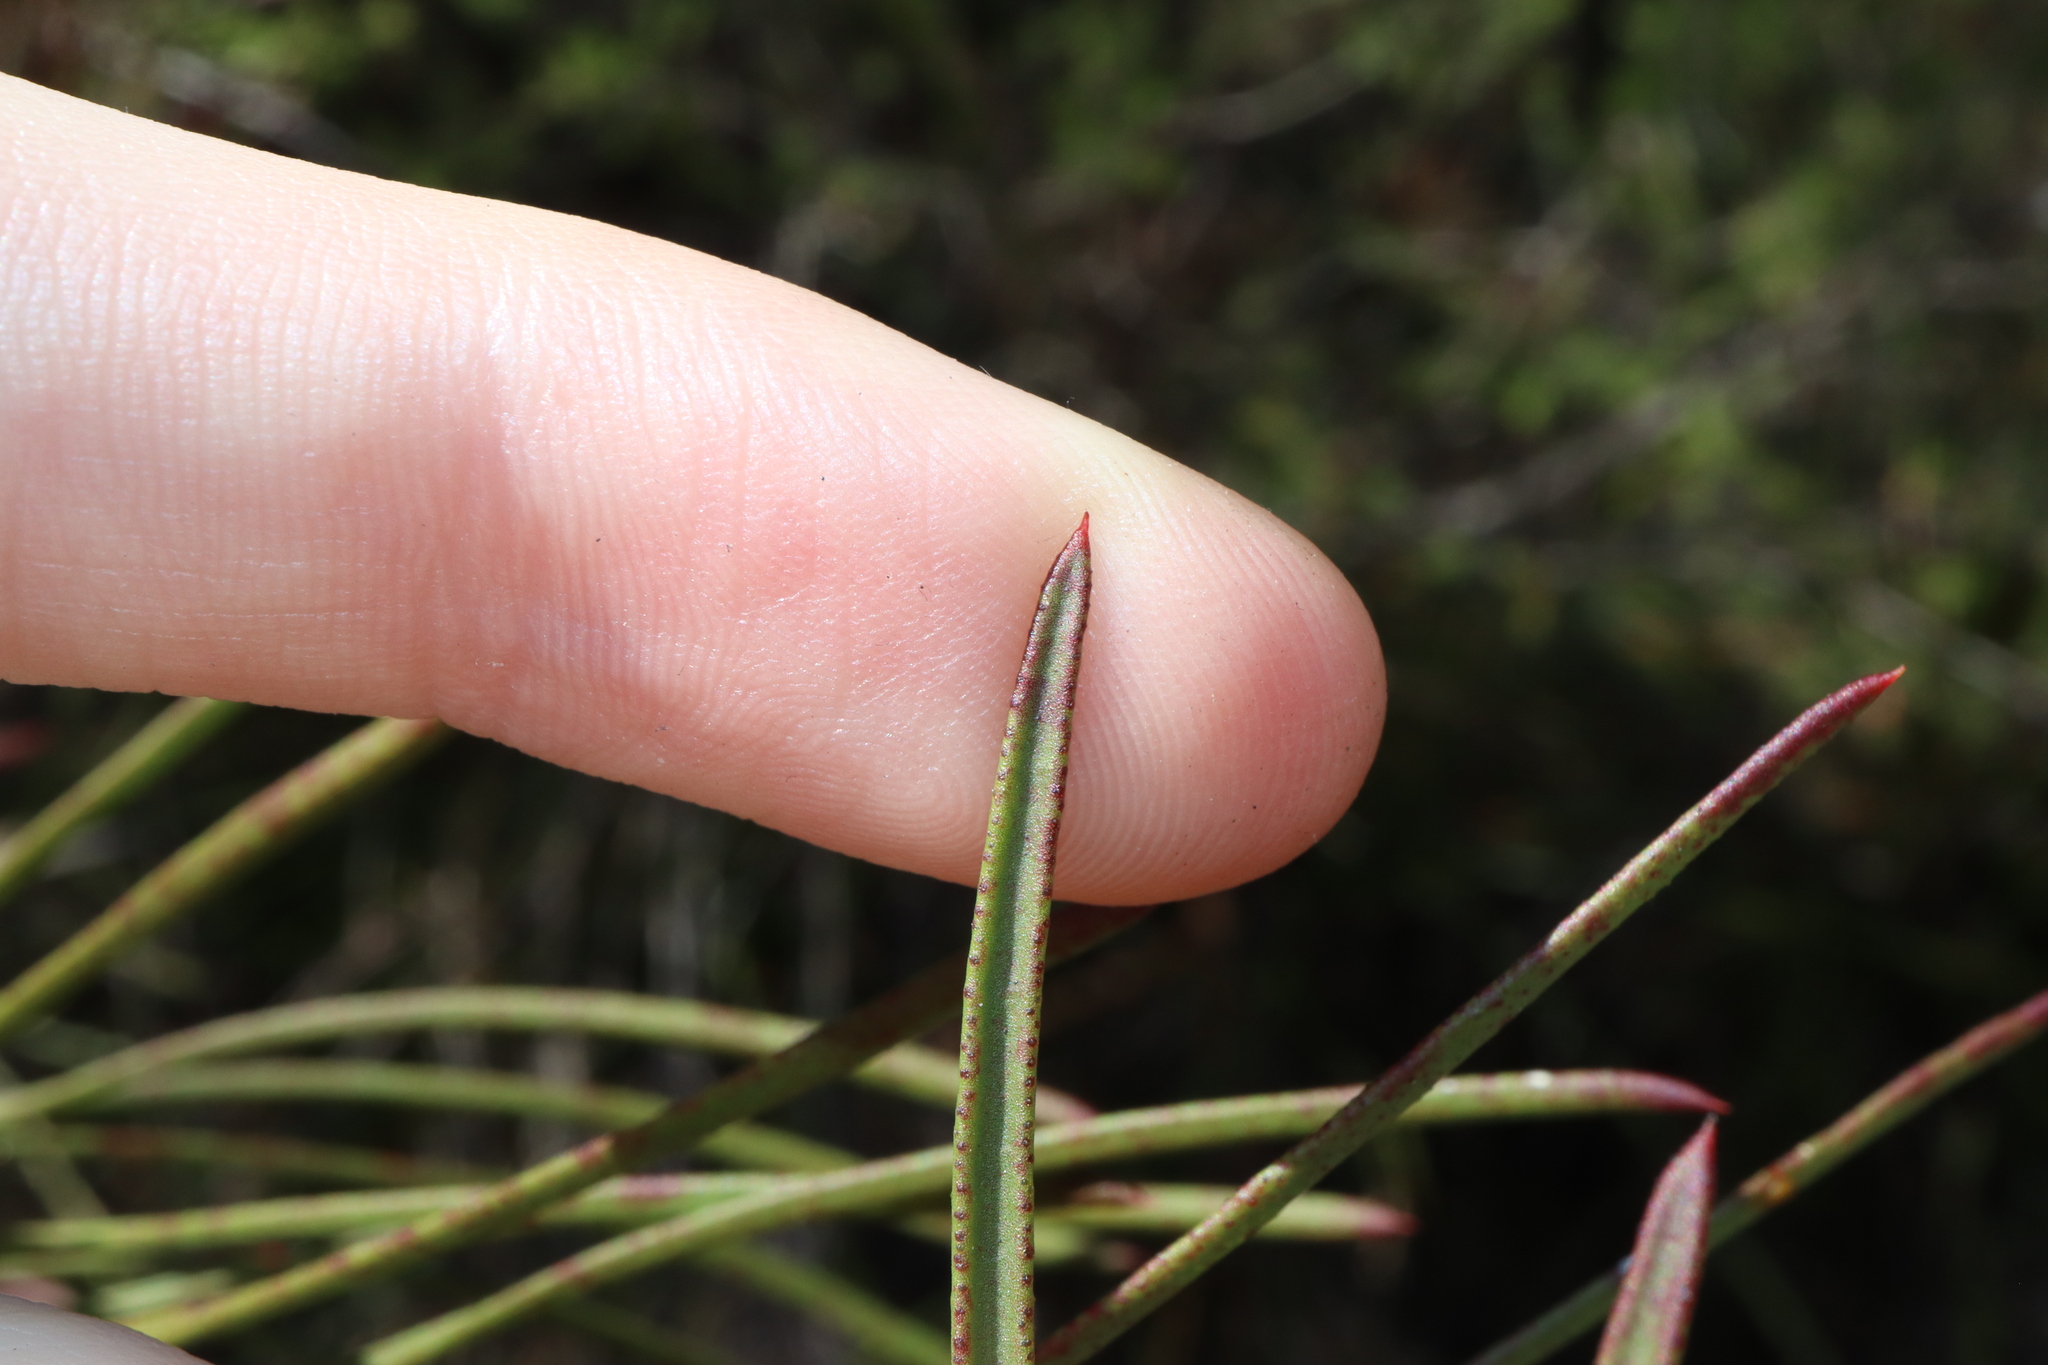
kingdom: Plantae
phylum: Tracheophyta
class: Magnoliopsida
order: Myrtales
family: Myrtaceae
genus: Callistemon
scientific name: Callistemon linearis
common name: Narrow-leaf bottlebrush
